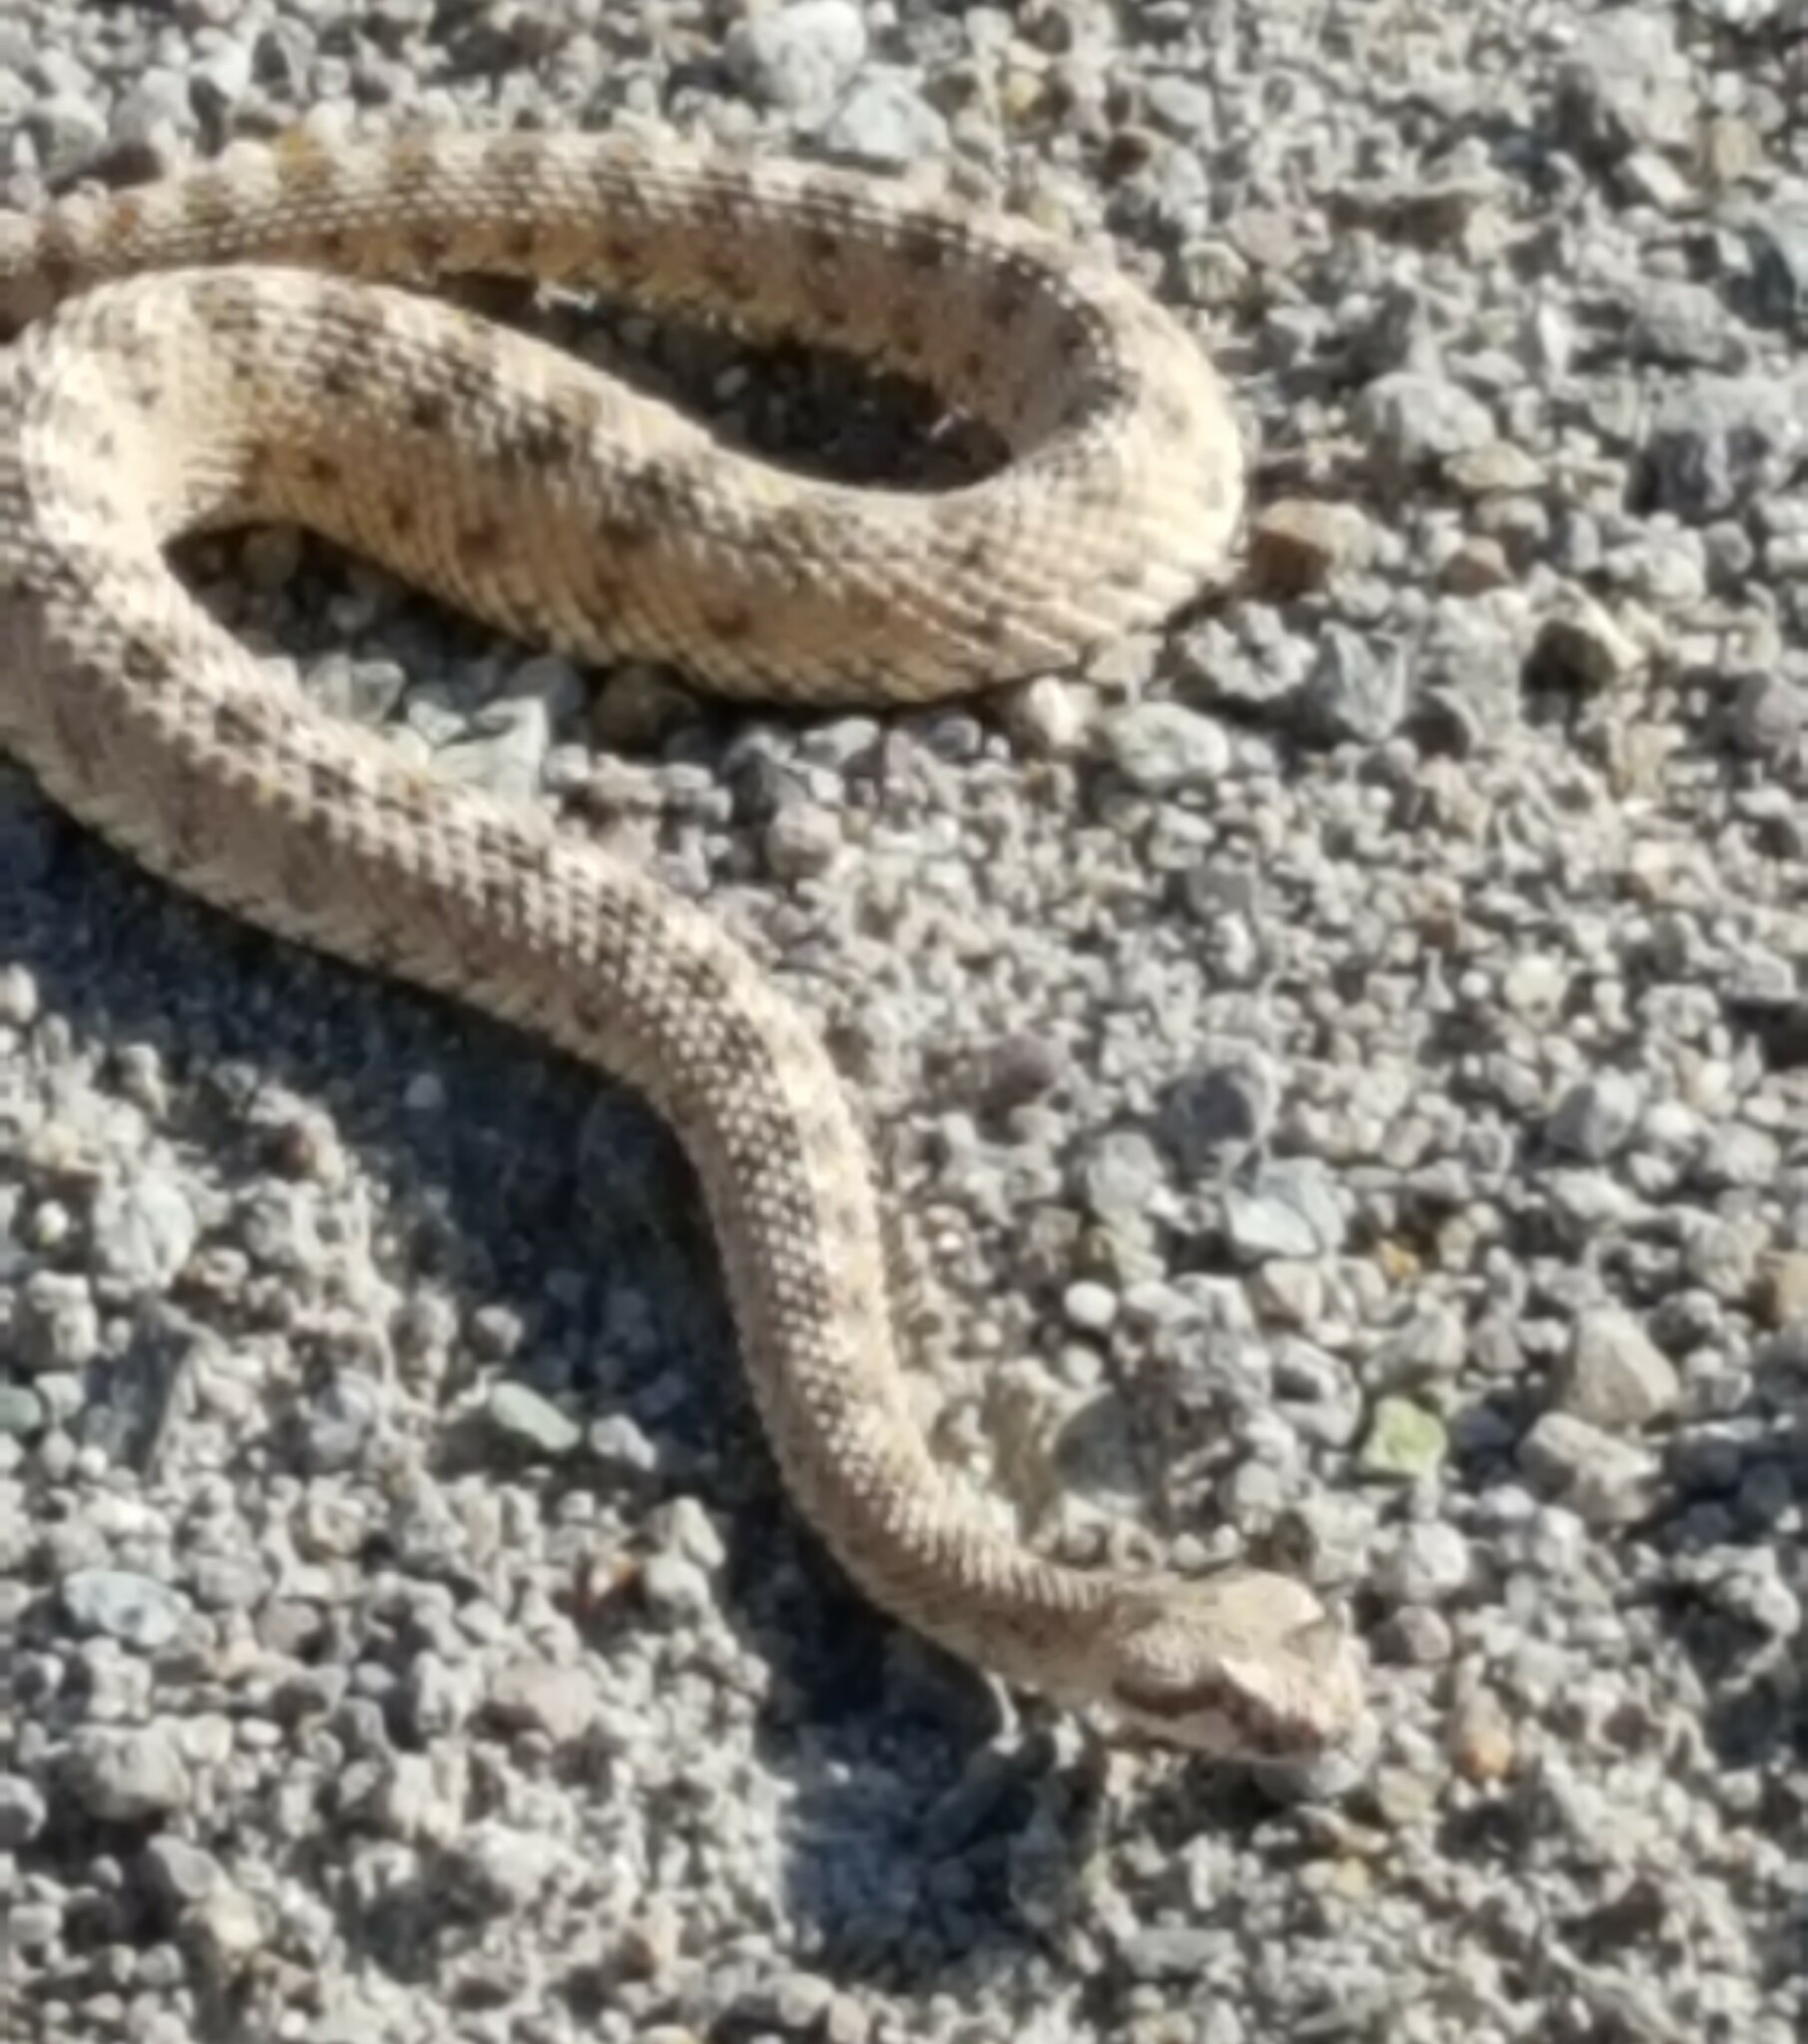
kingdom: Animalia
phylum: Chordata
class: Squamata
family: Viperidae
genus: Crotalus
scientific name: Crotalus cerastes
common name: Sidewinder
